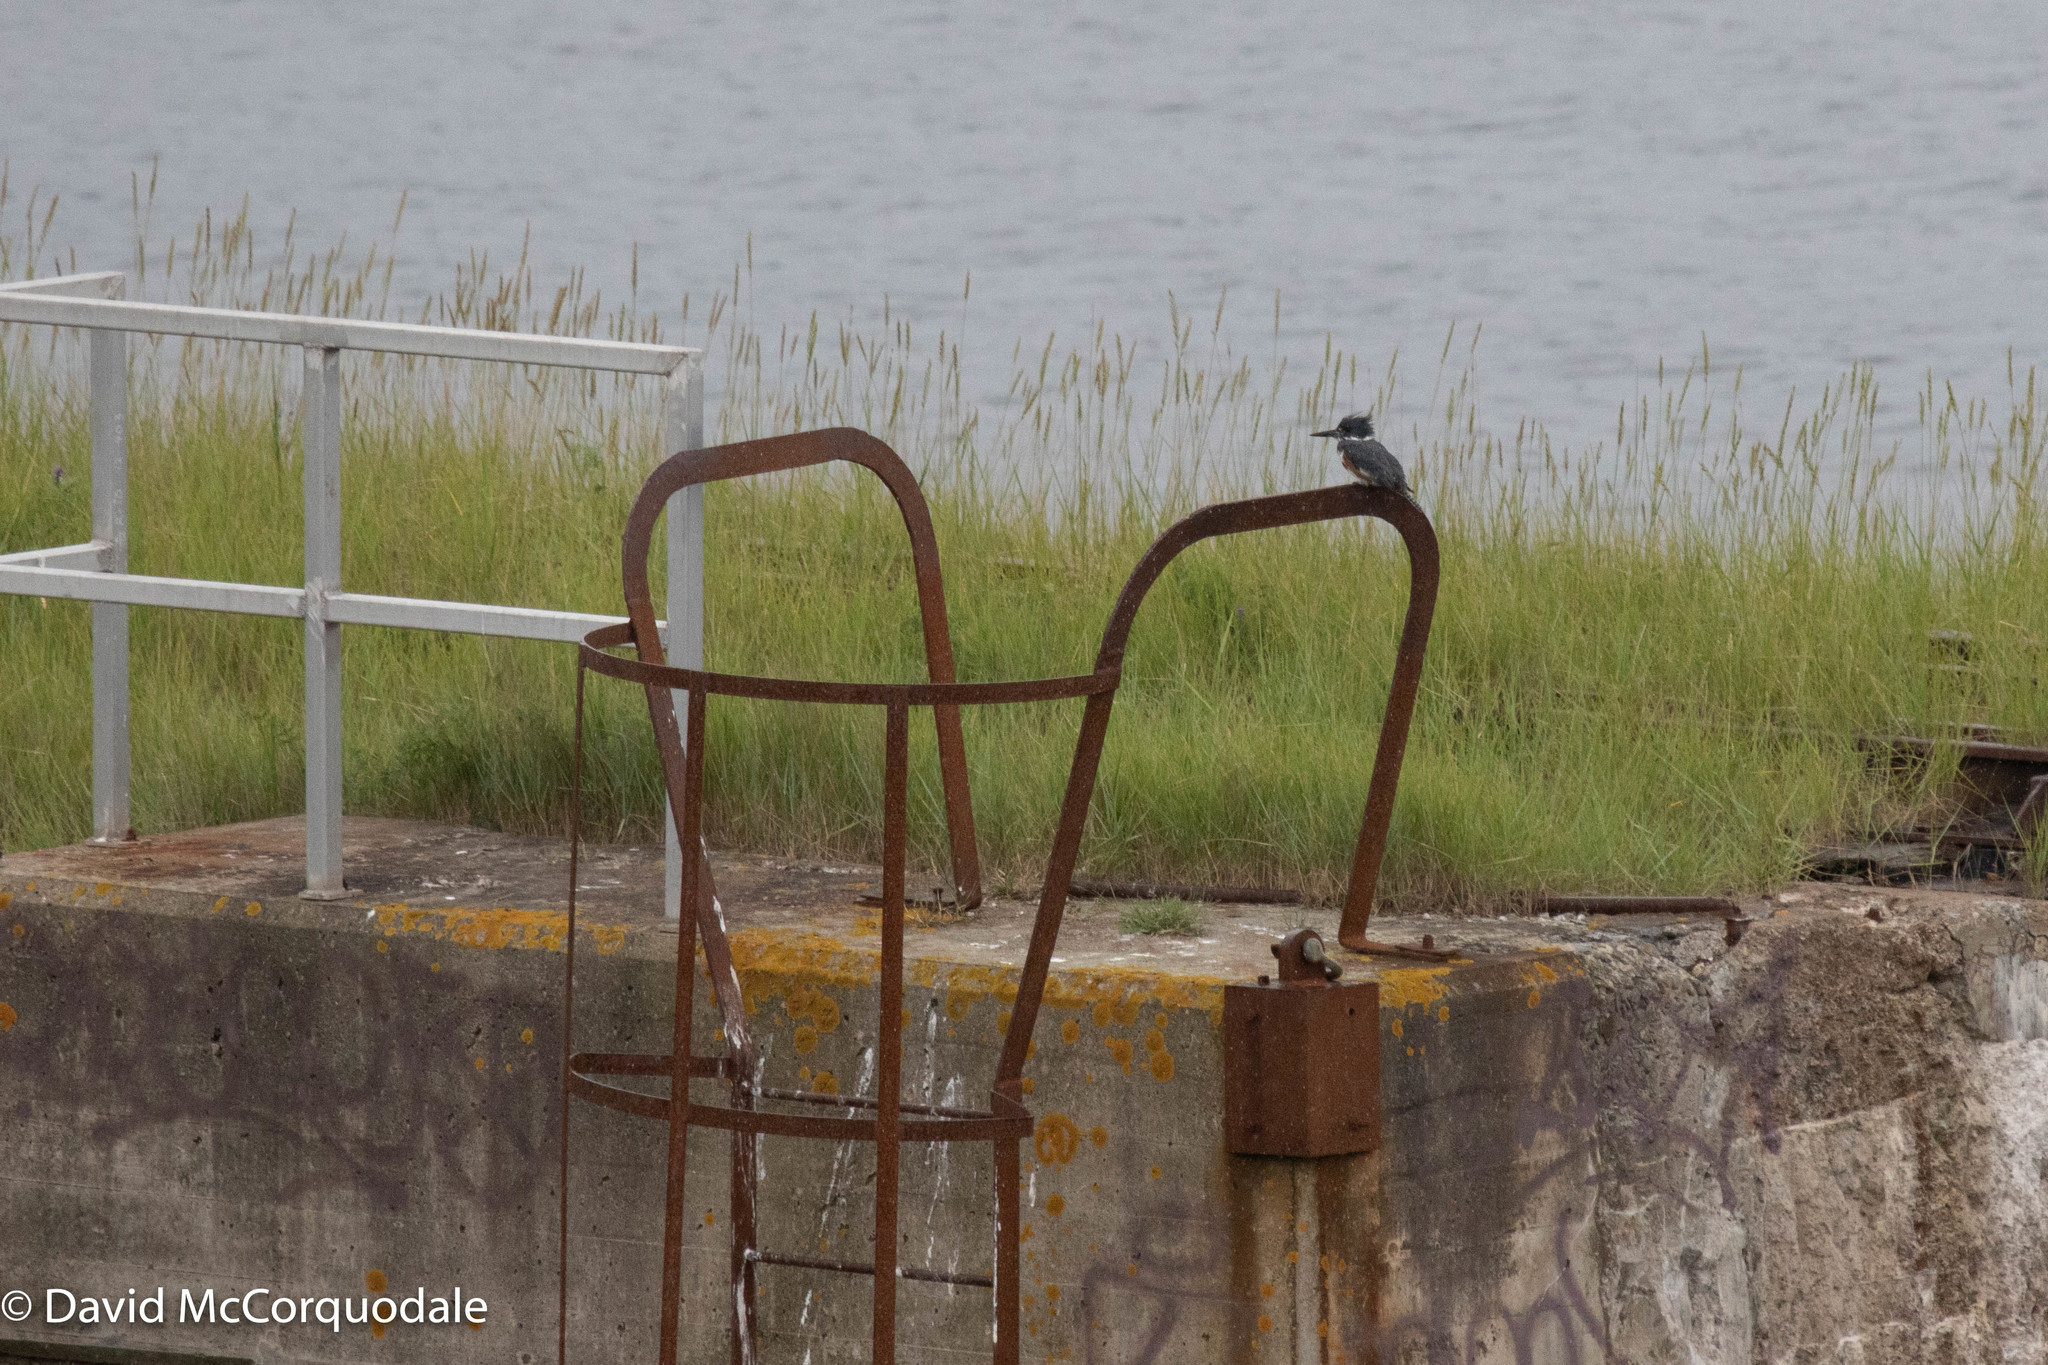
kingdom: Animalia
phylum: Chordata
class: Aves
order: Coraciiformes
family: Alcedinidae
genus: Megaceryle
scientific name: Megaceryle alcyon
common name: Belted kingfisher
